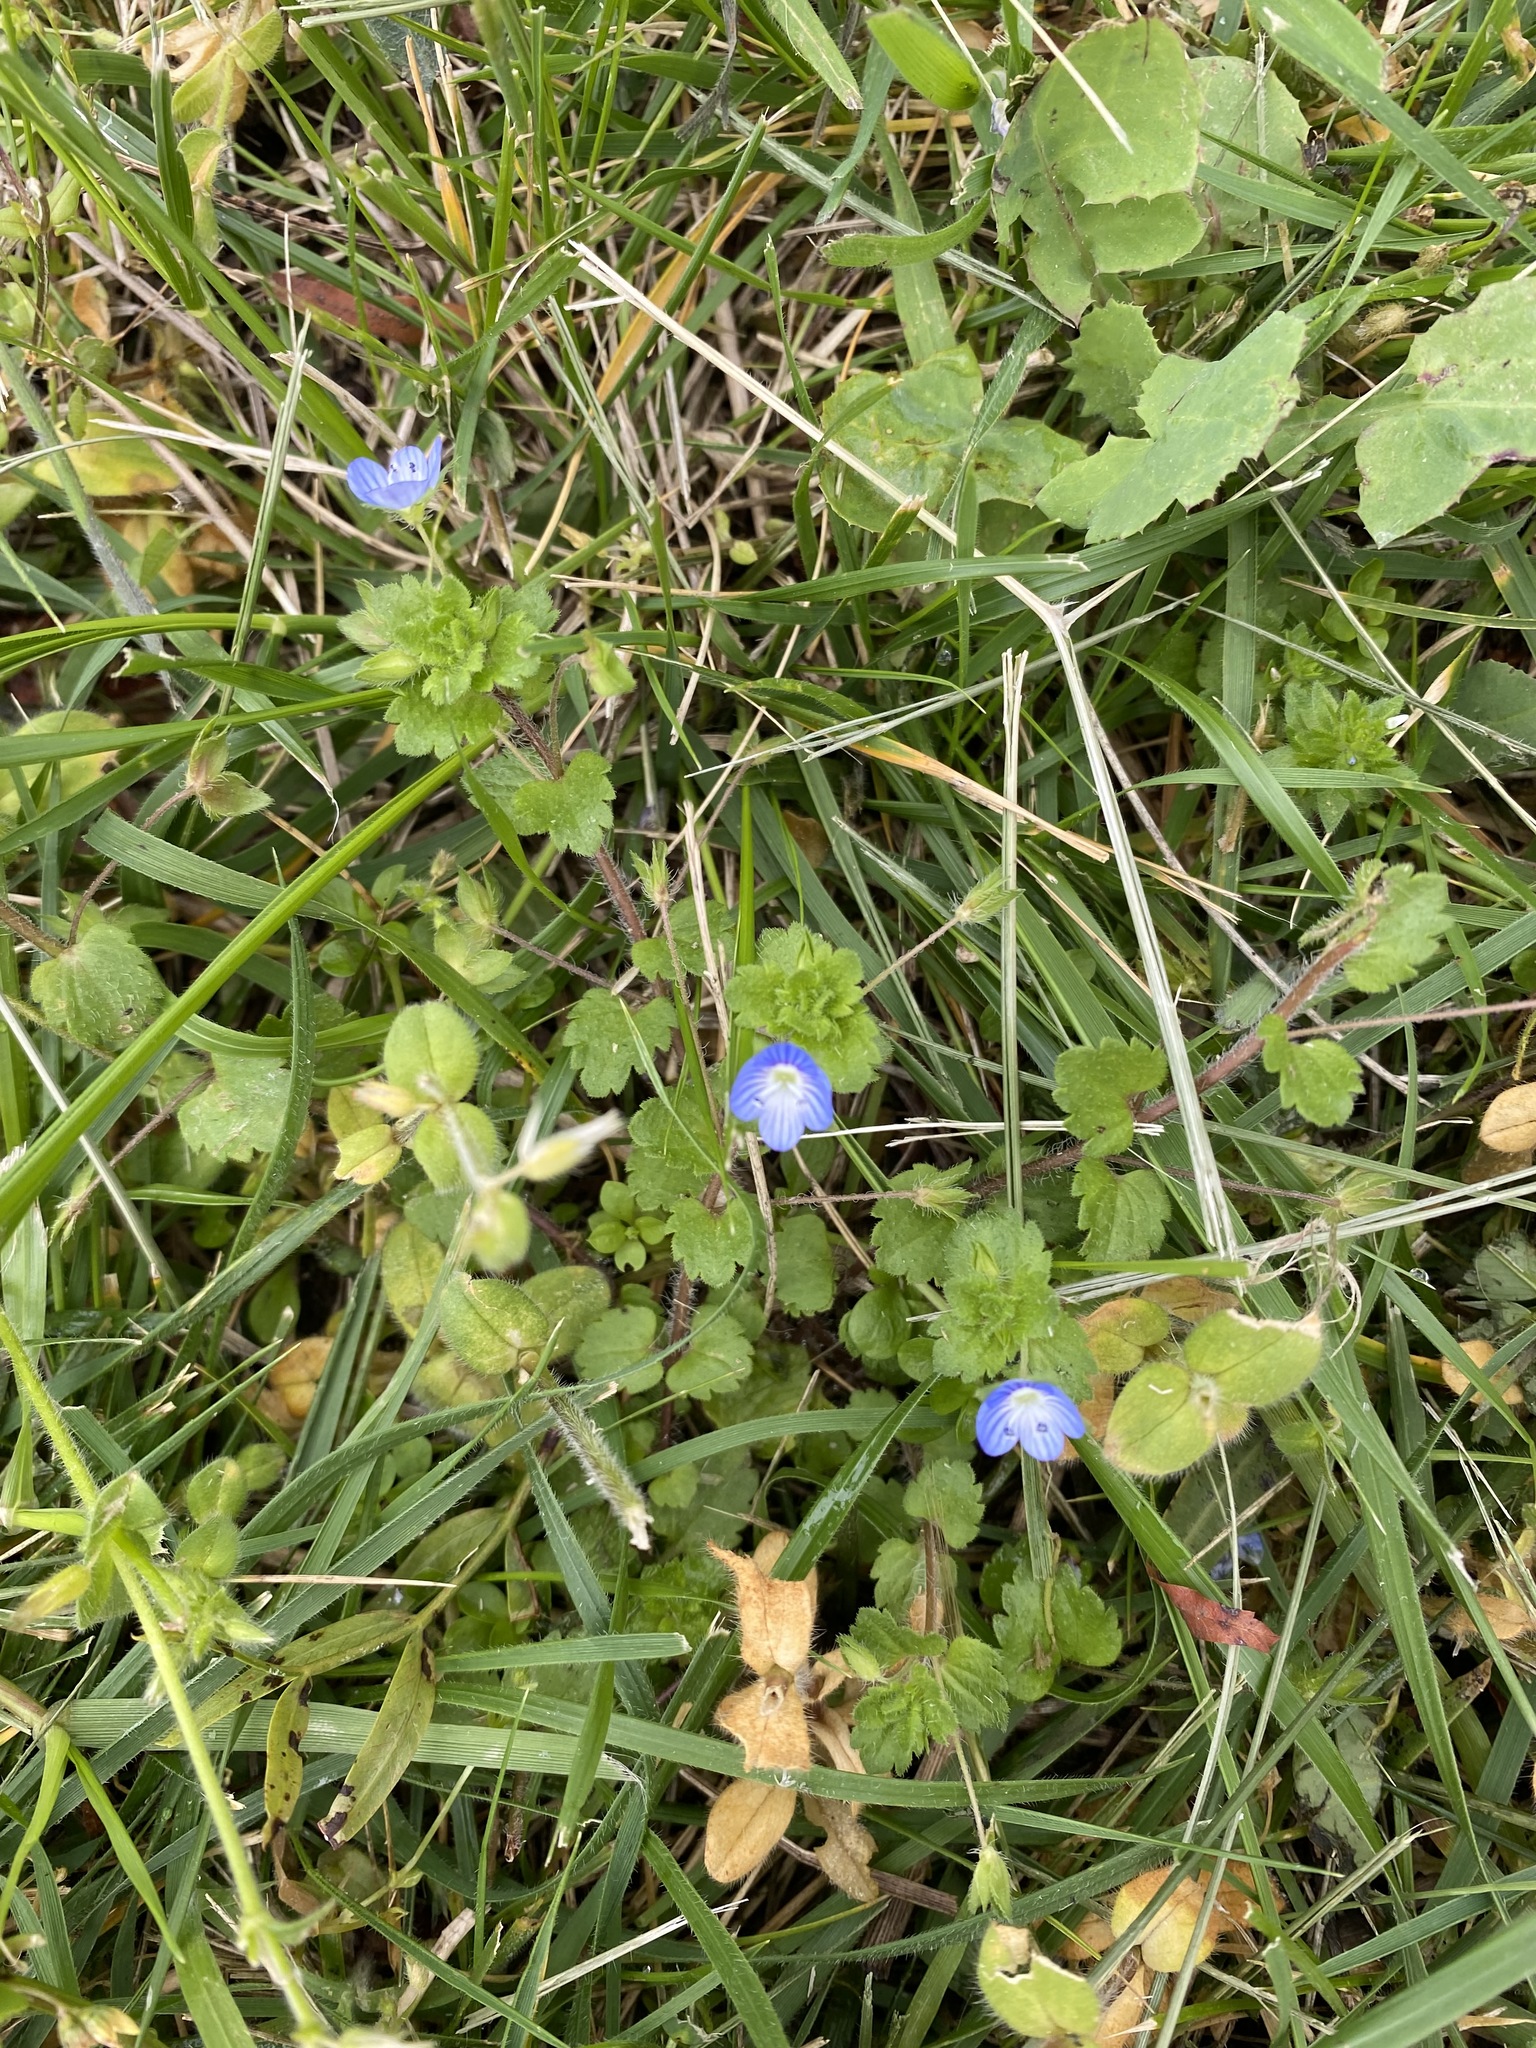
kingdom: Plantae
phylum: Tracheophyta
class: Magnoliopsida
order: Lamiales
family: Plantaginaceae
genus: Veronica
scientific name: Veronica persica
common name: Common field-speedwell
